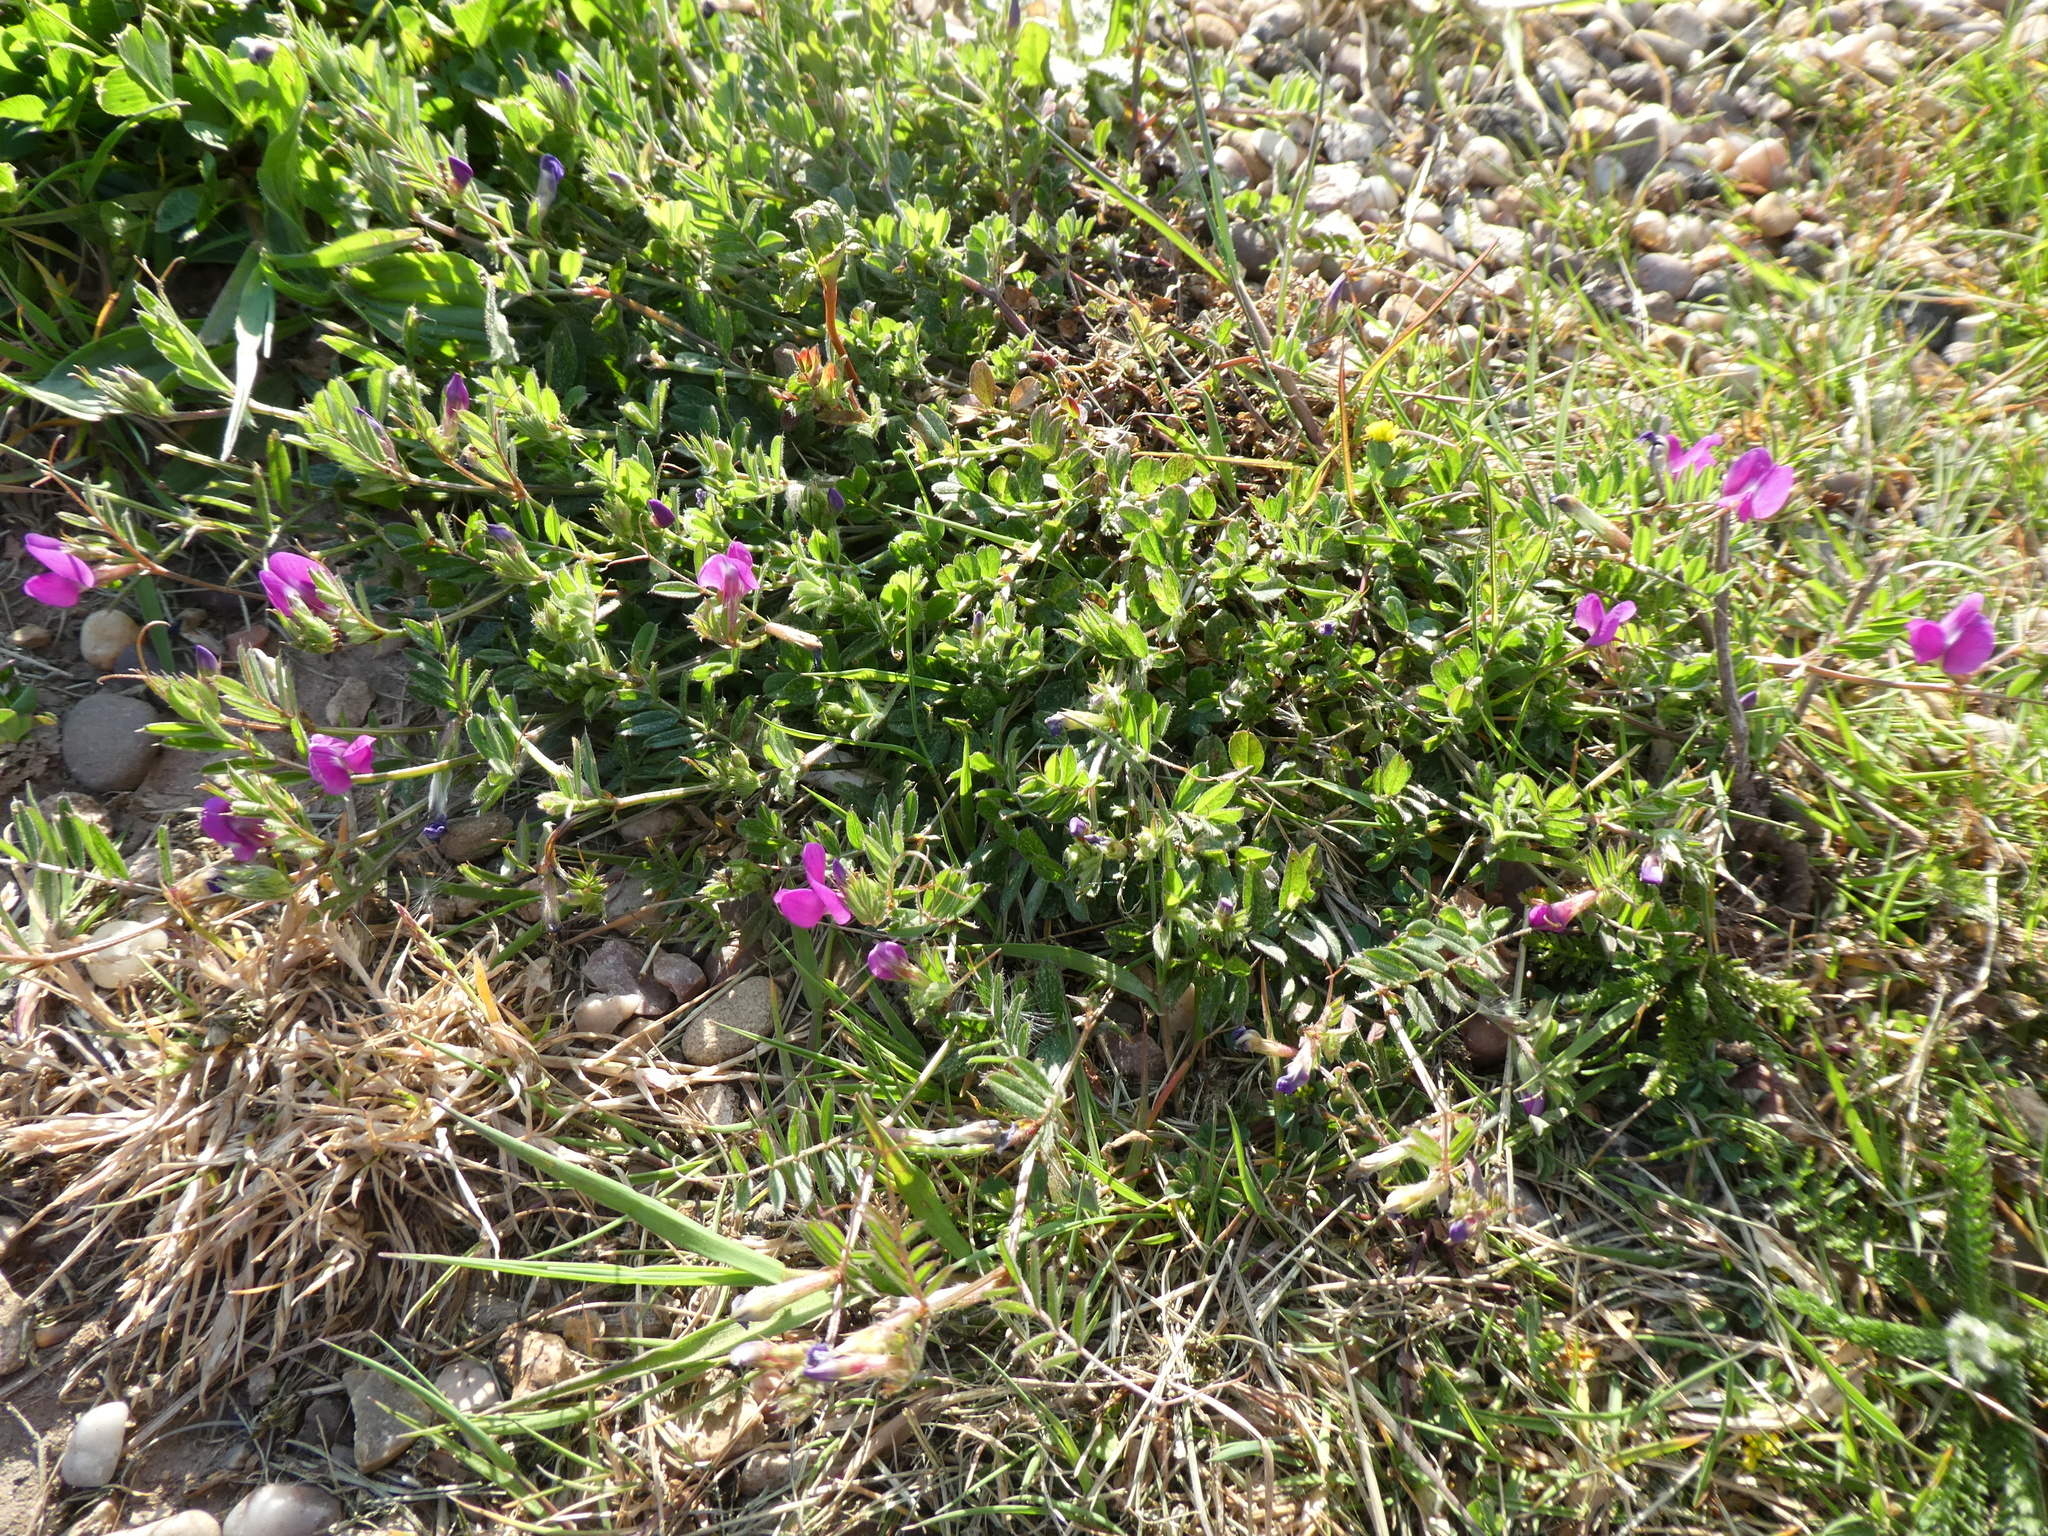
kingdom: Plantae
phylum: Tracheophyta
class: Magnoliopsida
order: Fabales
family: Fabaceae
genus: Vicia
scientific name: Vicia sativa
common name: Garden vetch
